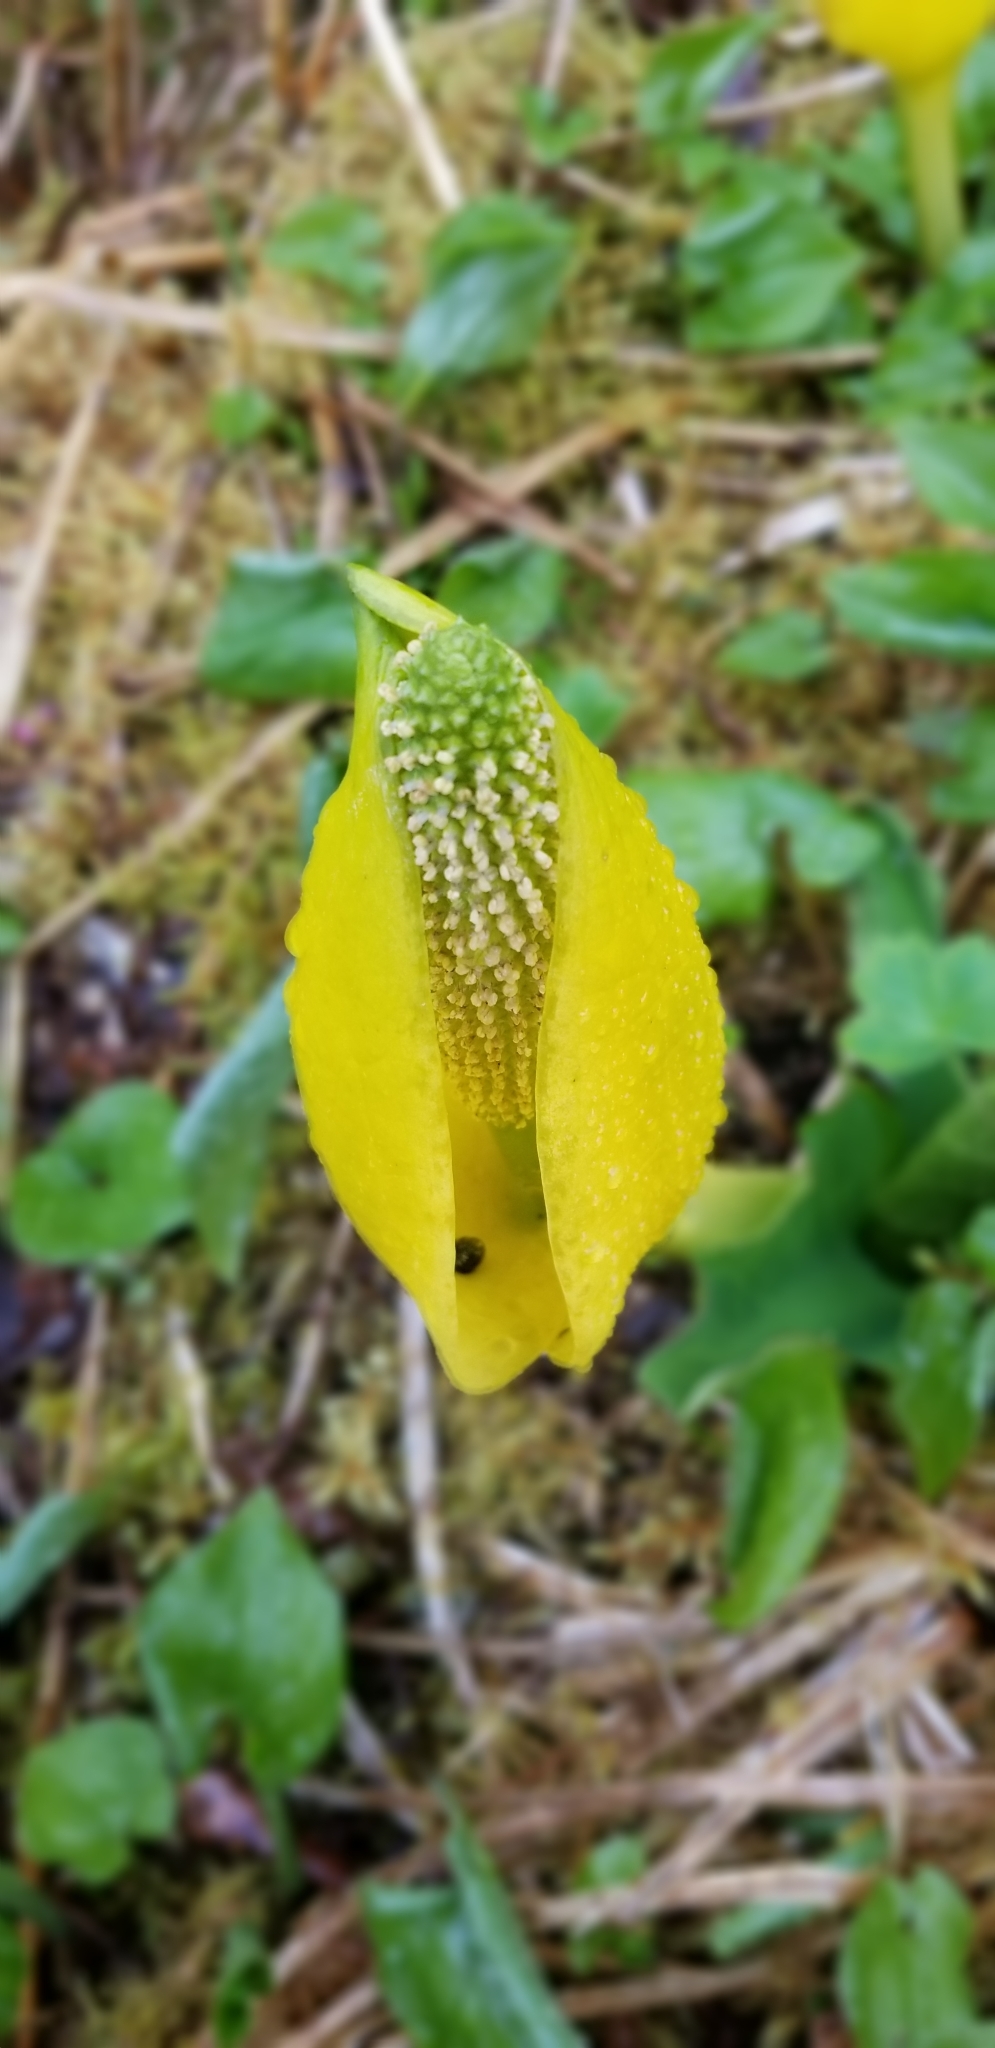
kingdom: Plantae
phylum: Tracheophyta
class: Liliopsida
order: Alismatales
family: Araceae
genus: Lysichiton
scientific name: Lysichiton americanus
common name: American skunk cabbage
